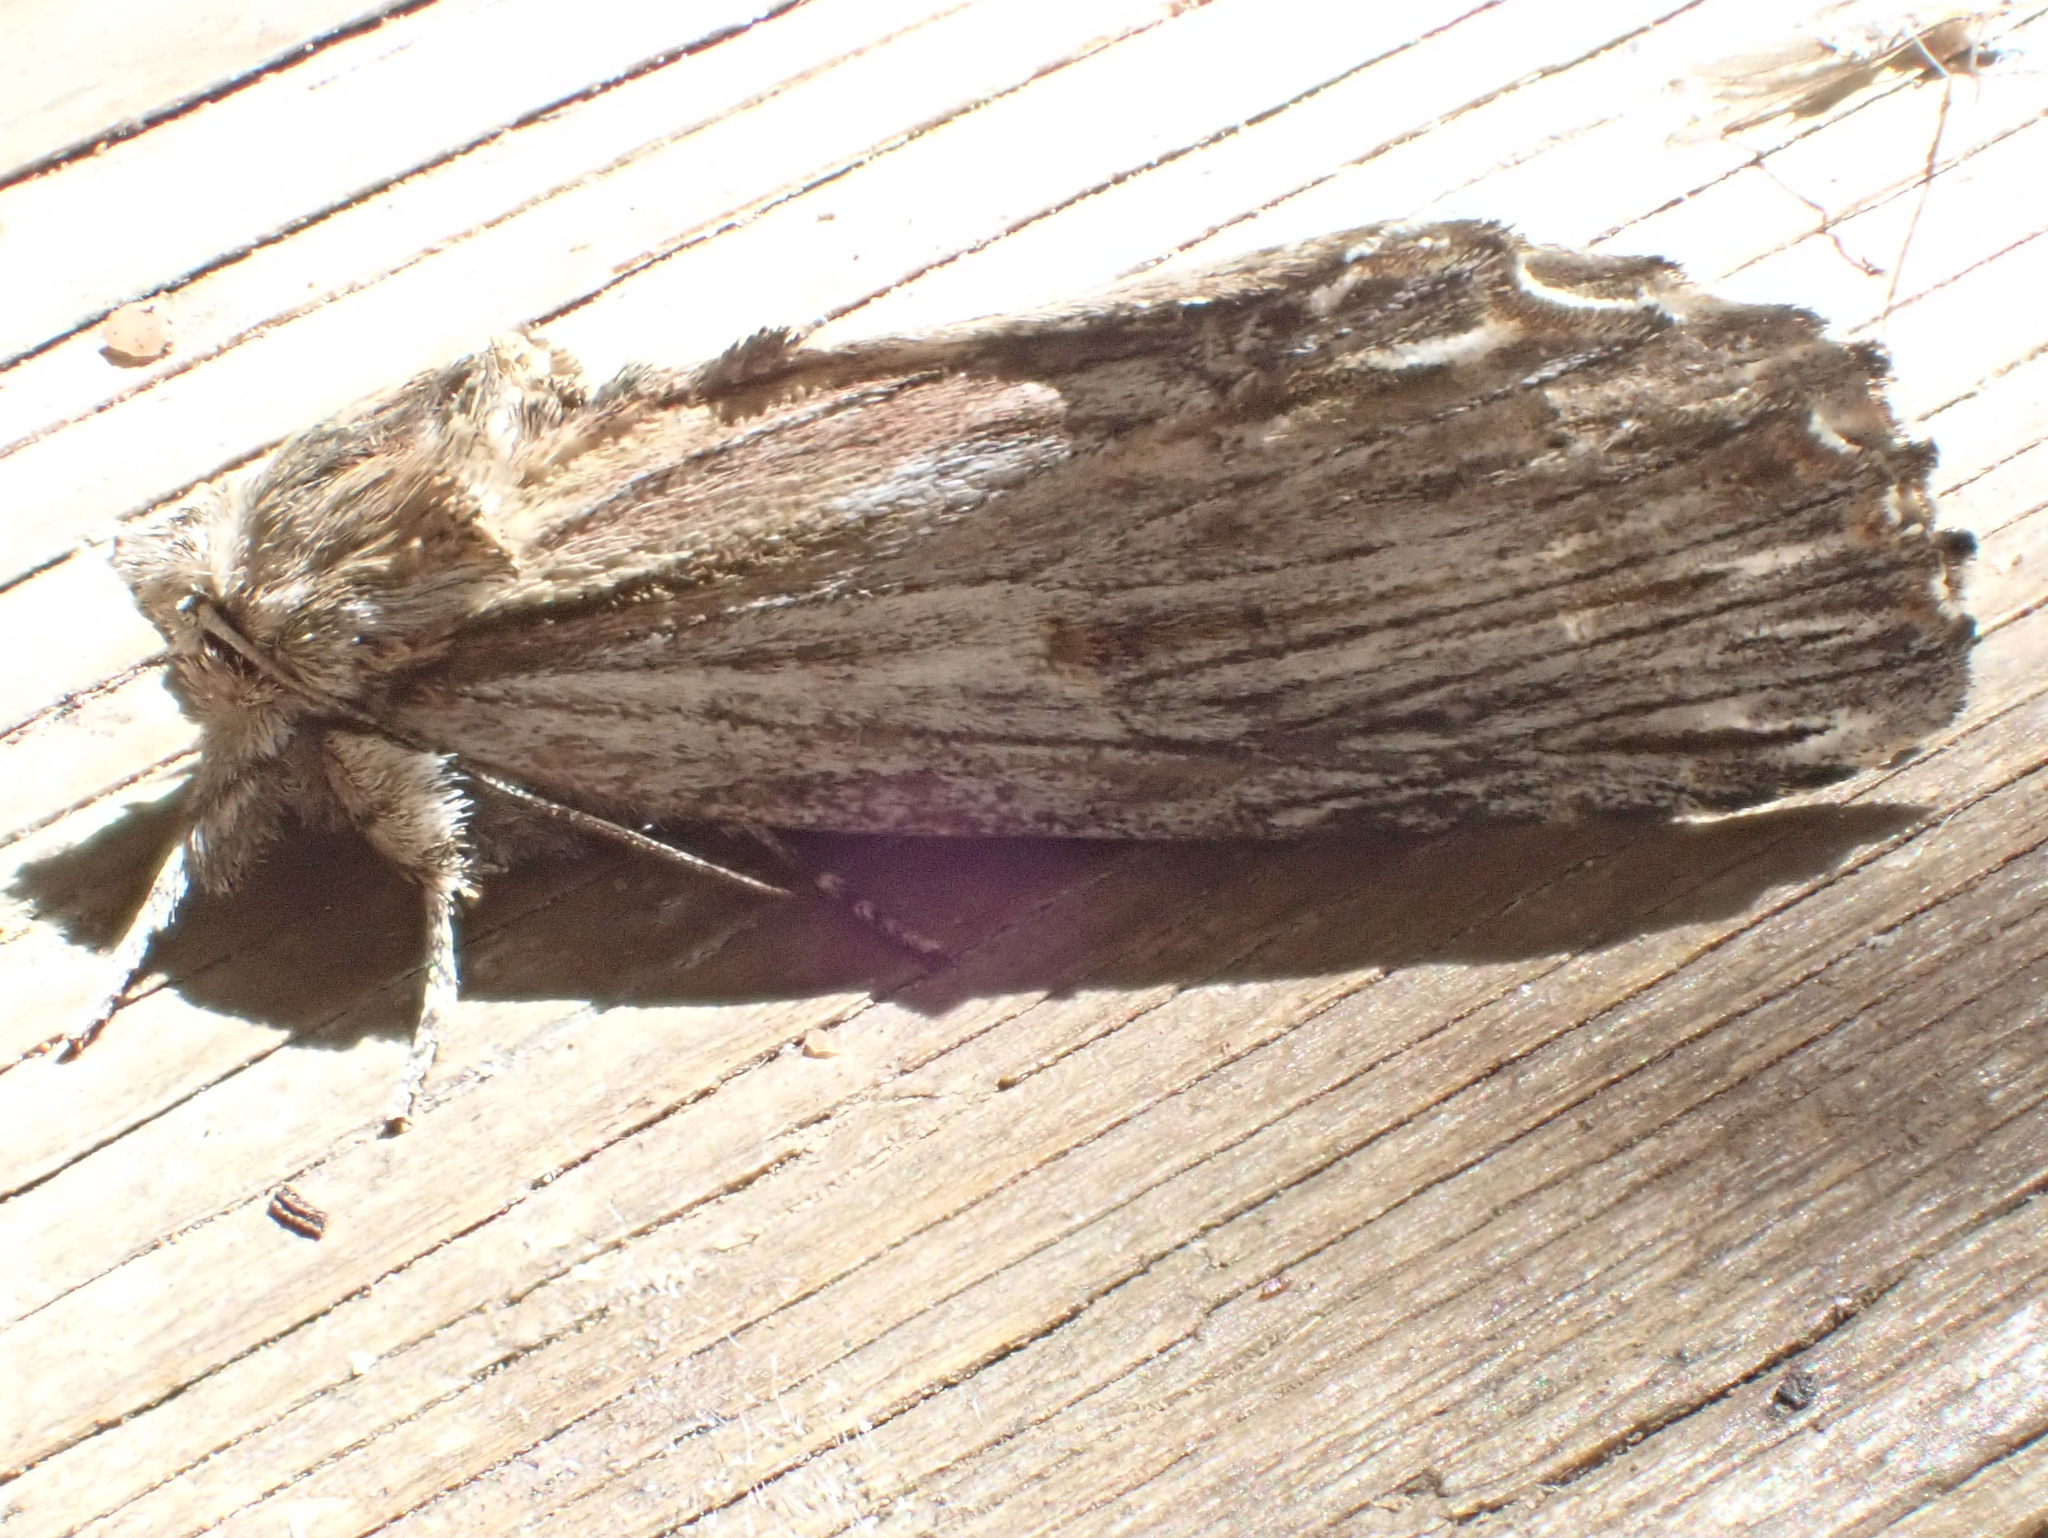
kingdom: Animalia
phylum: Arthropoda
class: Insecta
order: Lepidoptera
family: Notodontidae
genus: Oligocentria
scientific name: Oligocentria Ianassa lignicolor
